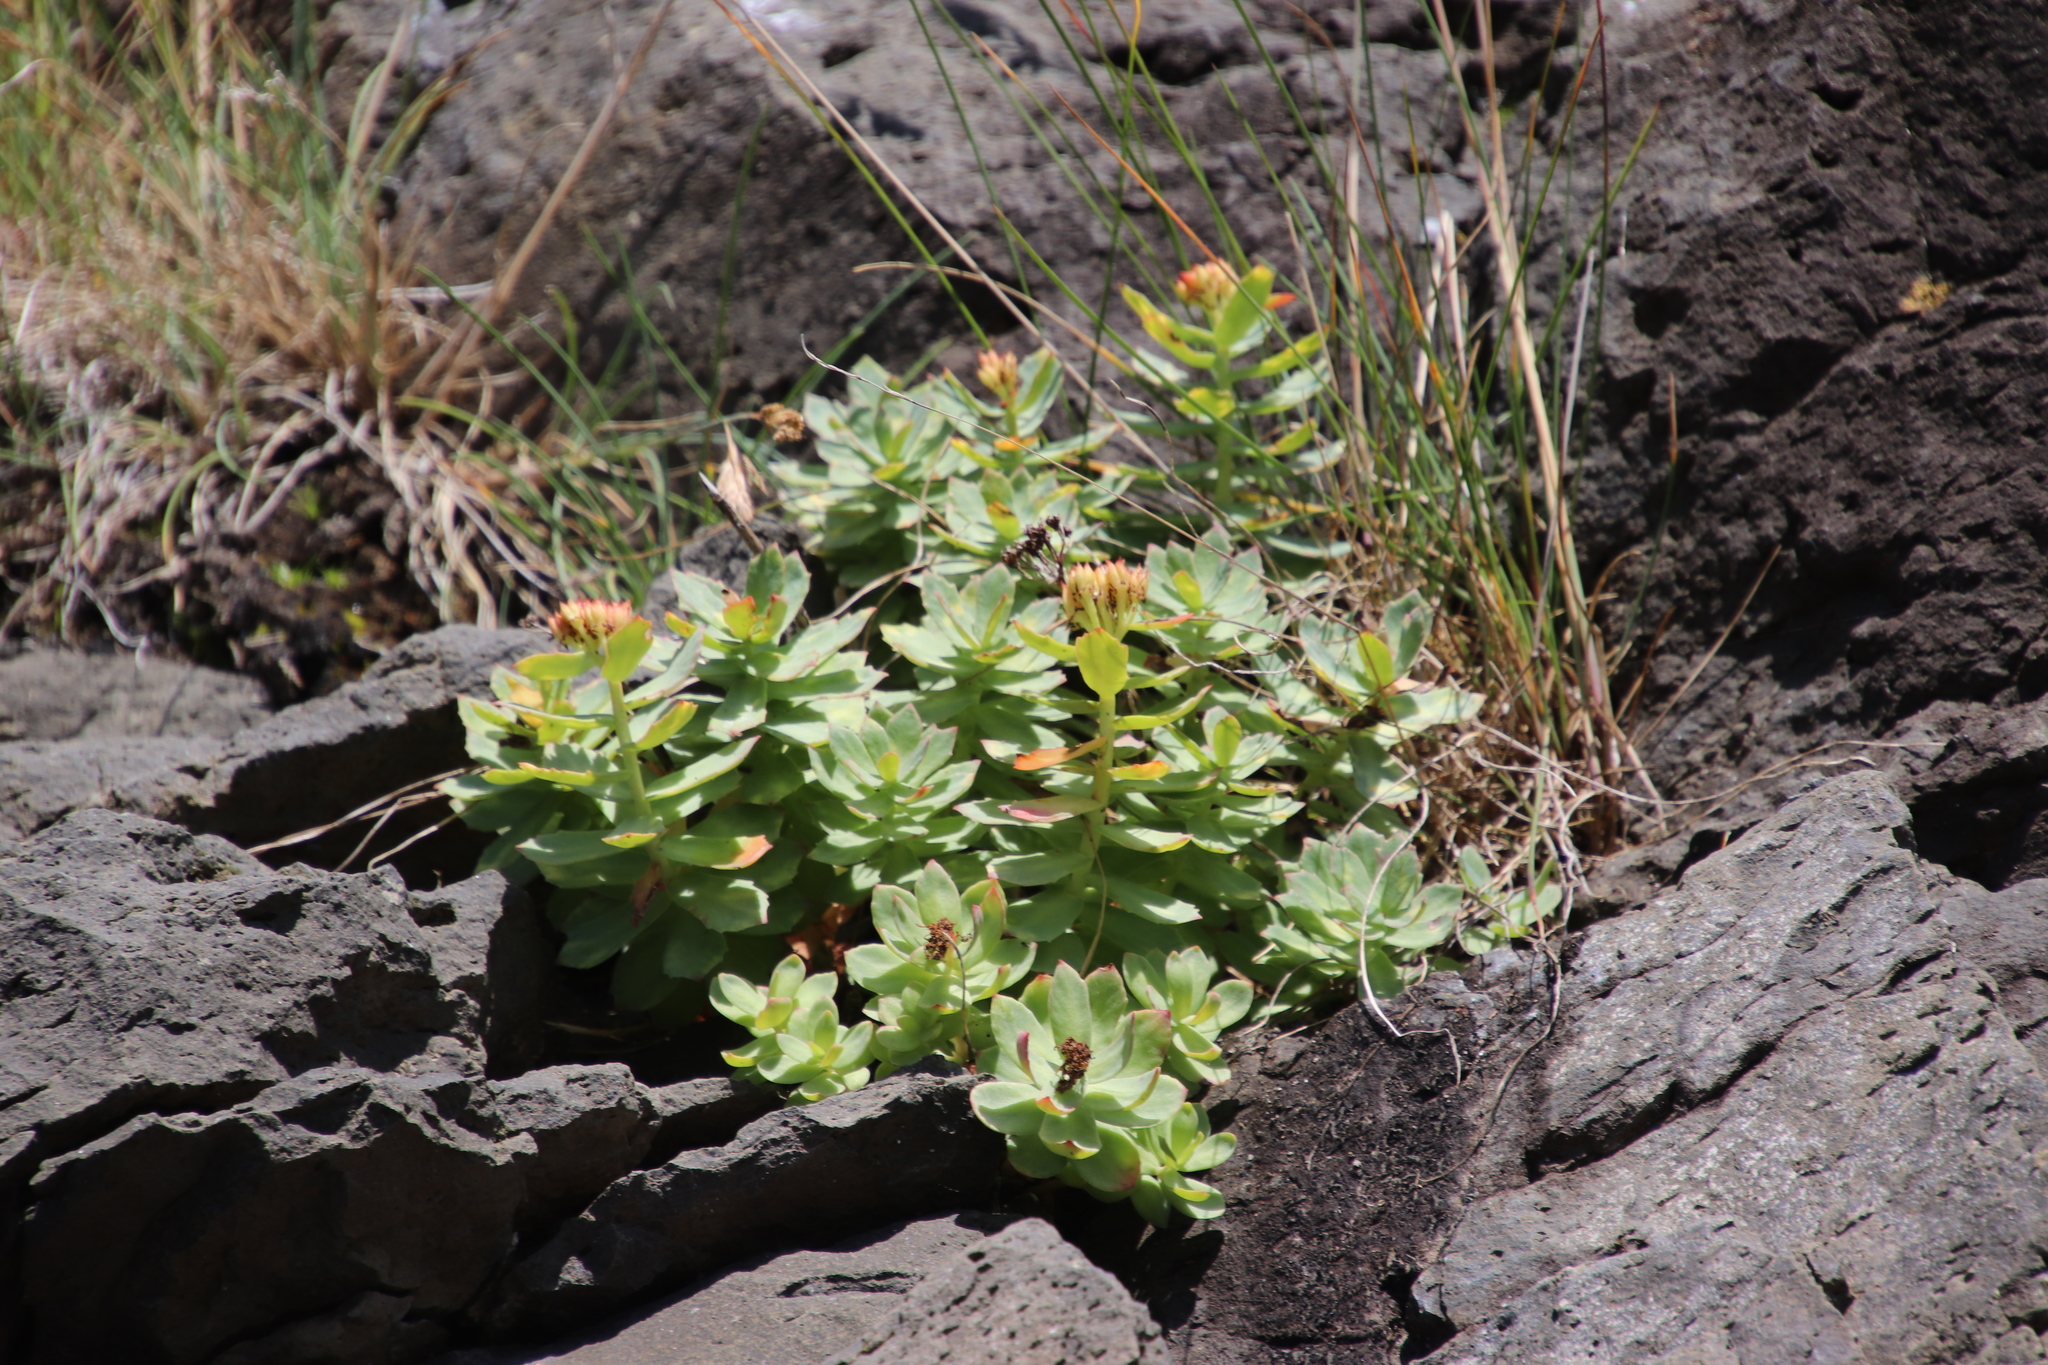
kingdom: Plantae
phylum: Tracheophyta
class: Magnoliopsida
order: Saxifragales
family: Crassulaceae
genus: Rhodiola
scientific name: Rhodiola rosea
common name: Roseroot
